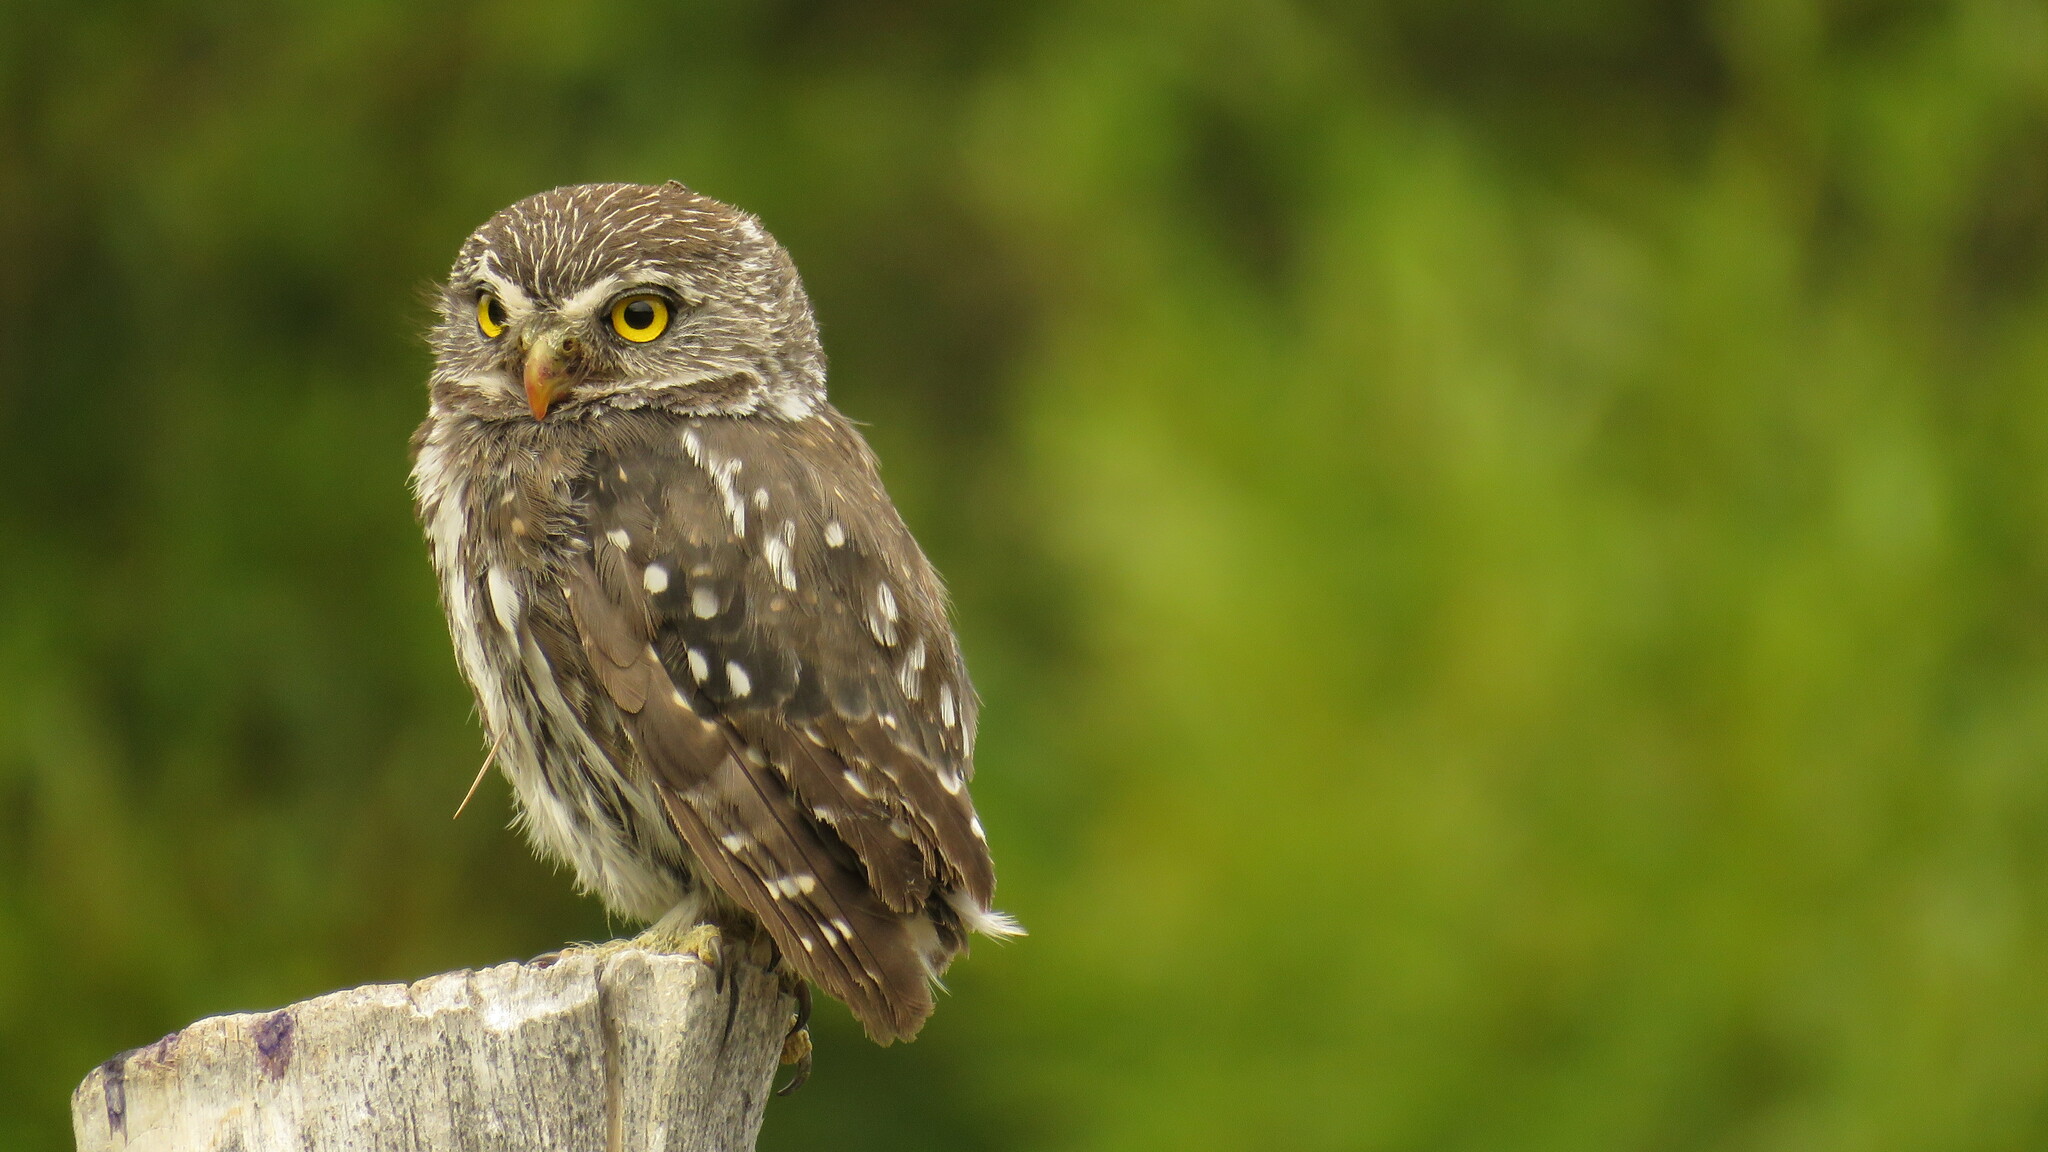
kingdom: Animalia
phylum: Chordata
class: Aves
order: Strigiformes
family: Strigidae
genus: Glaucidium
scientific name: Glaucidium nana
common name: Austral pygmy-owl
